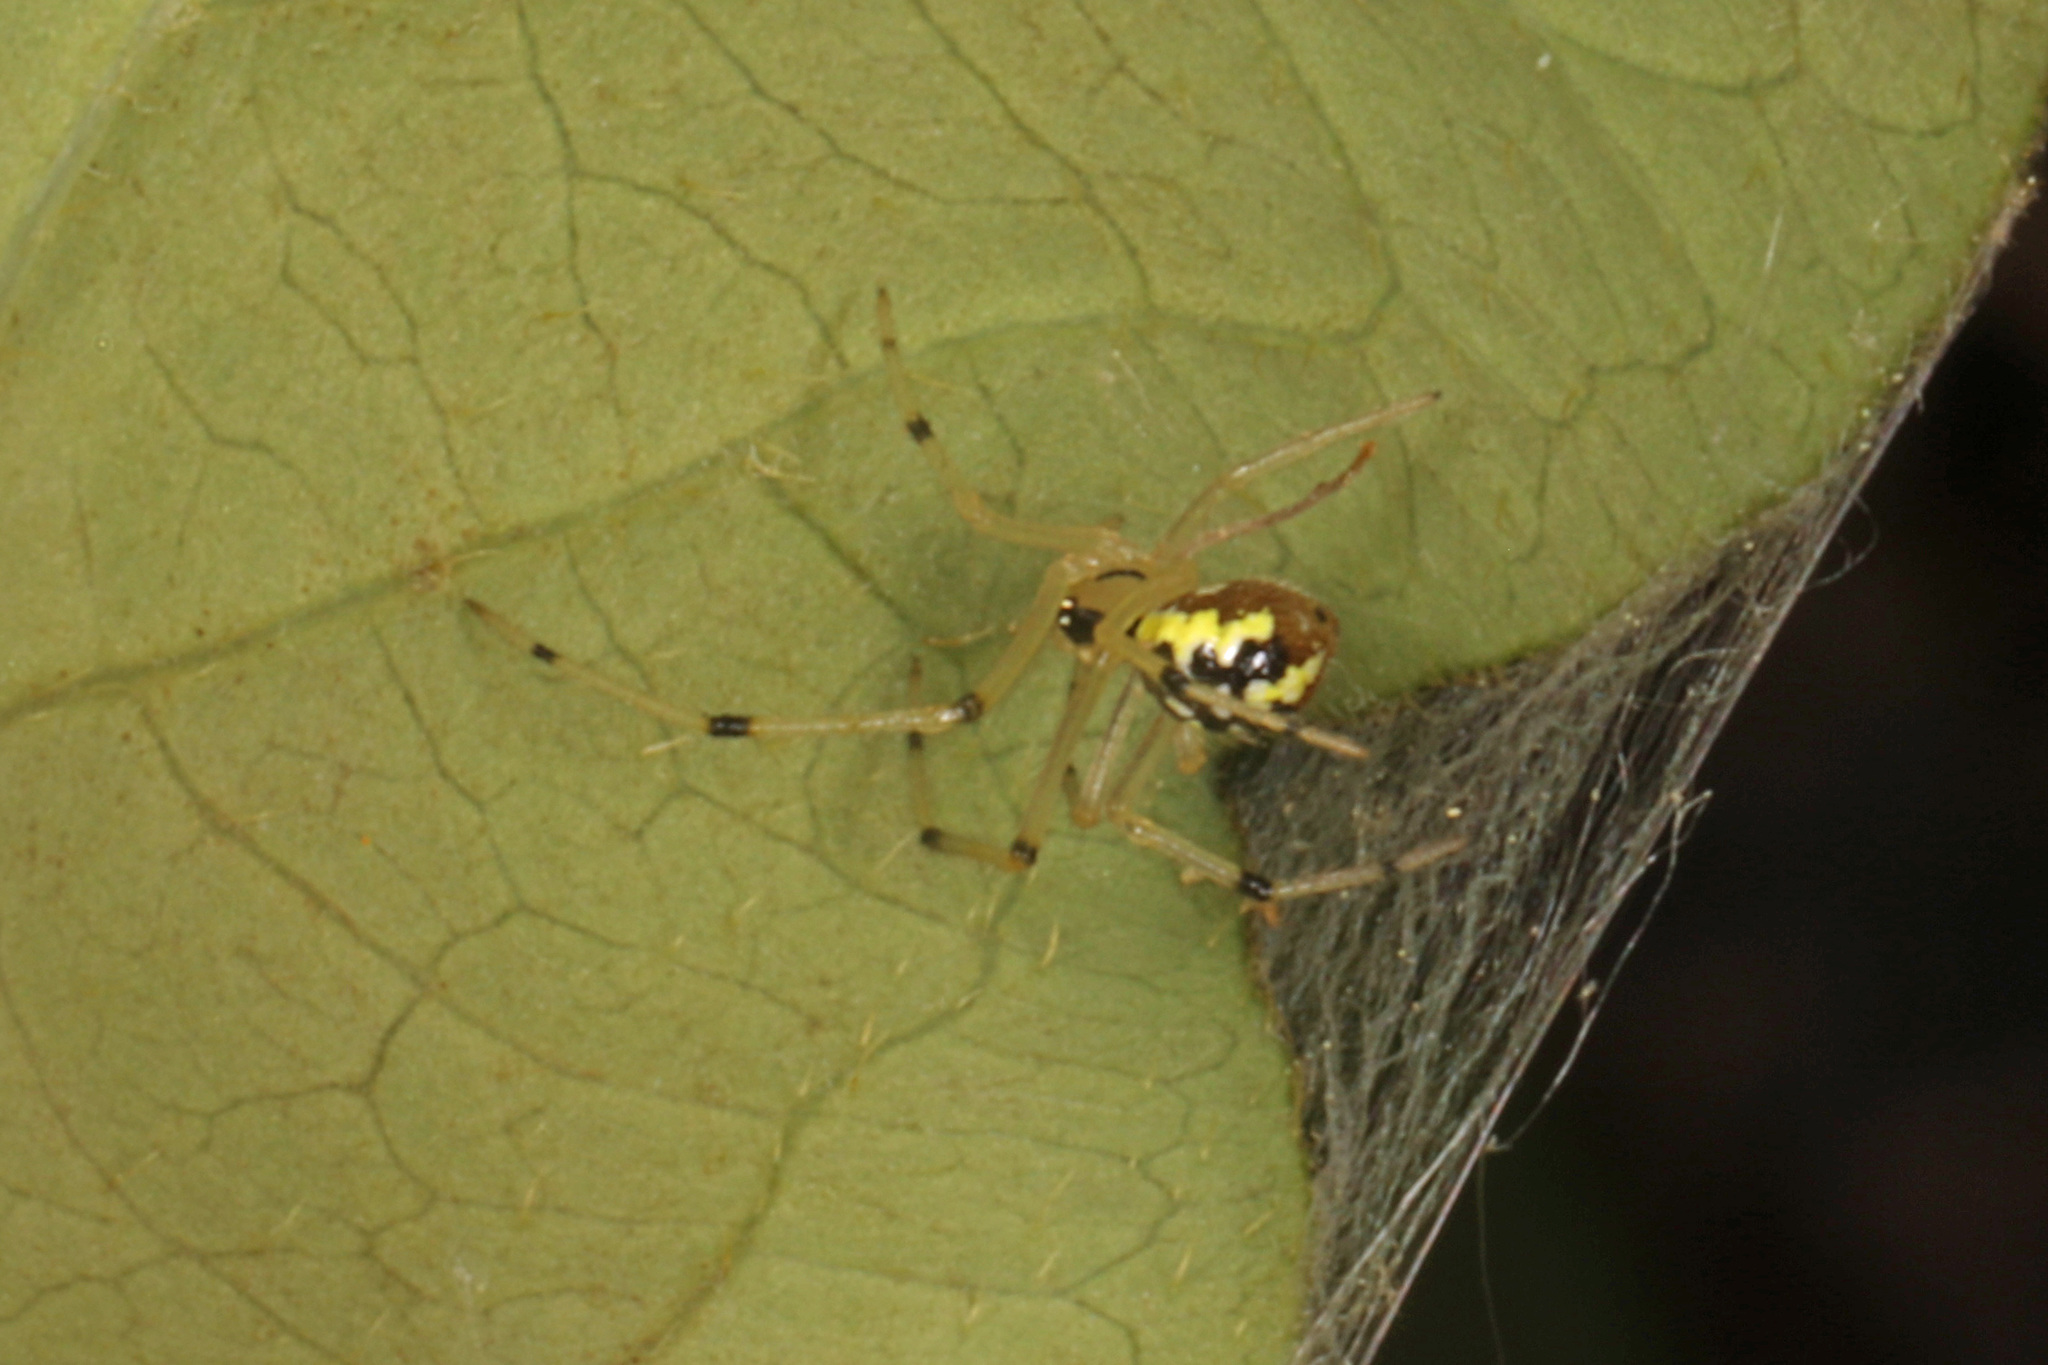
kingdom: Animalia
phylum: Arthropoda
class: Arachnida
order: Araneae
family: Theridiidae
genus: Phylloneta
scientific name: Phylloneta pictipes
